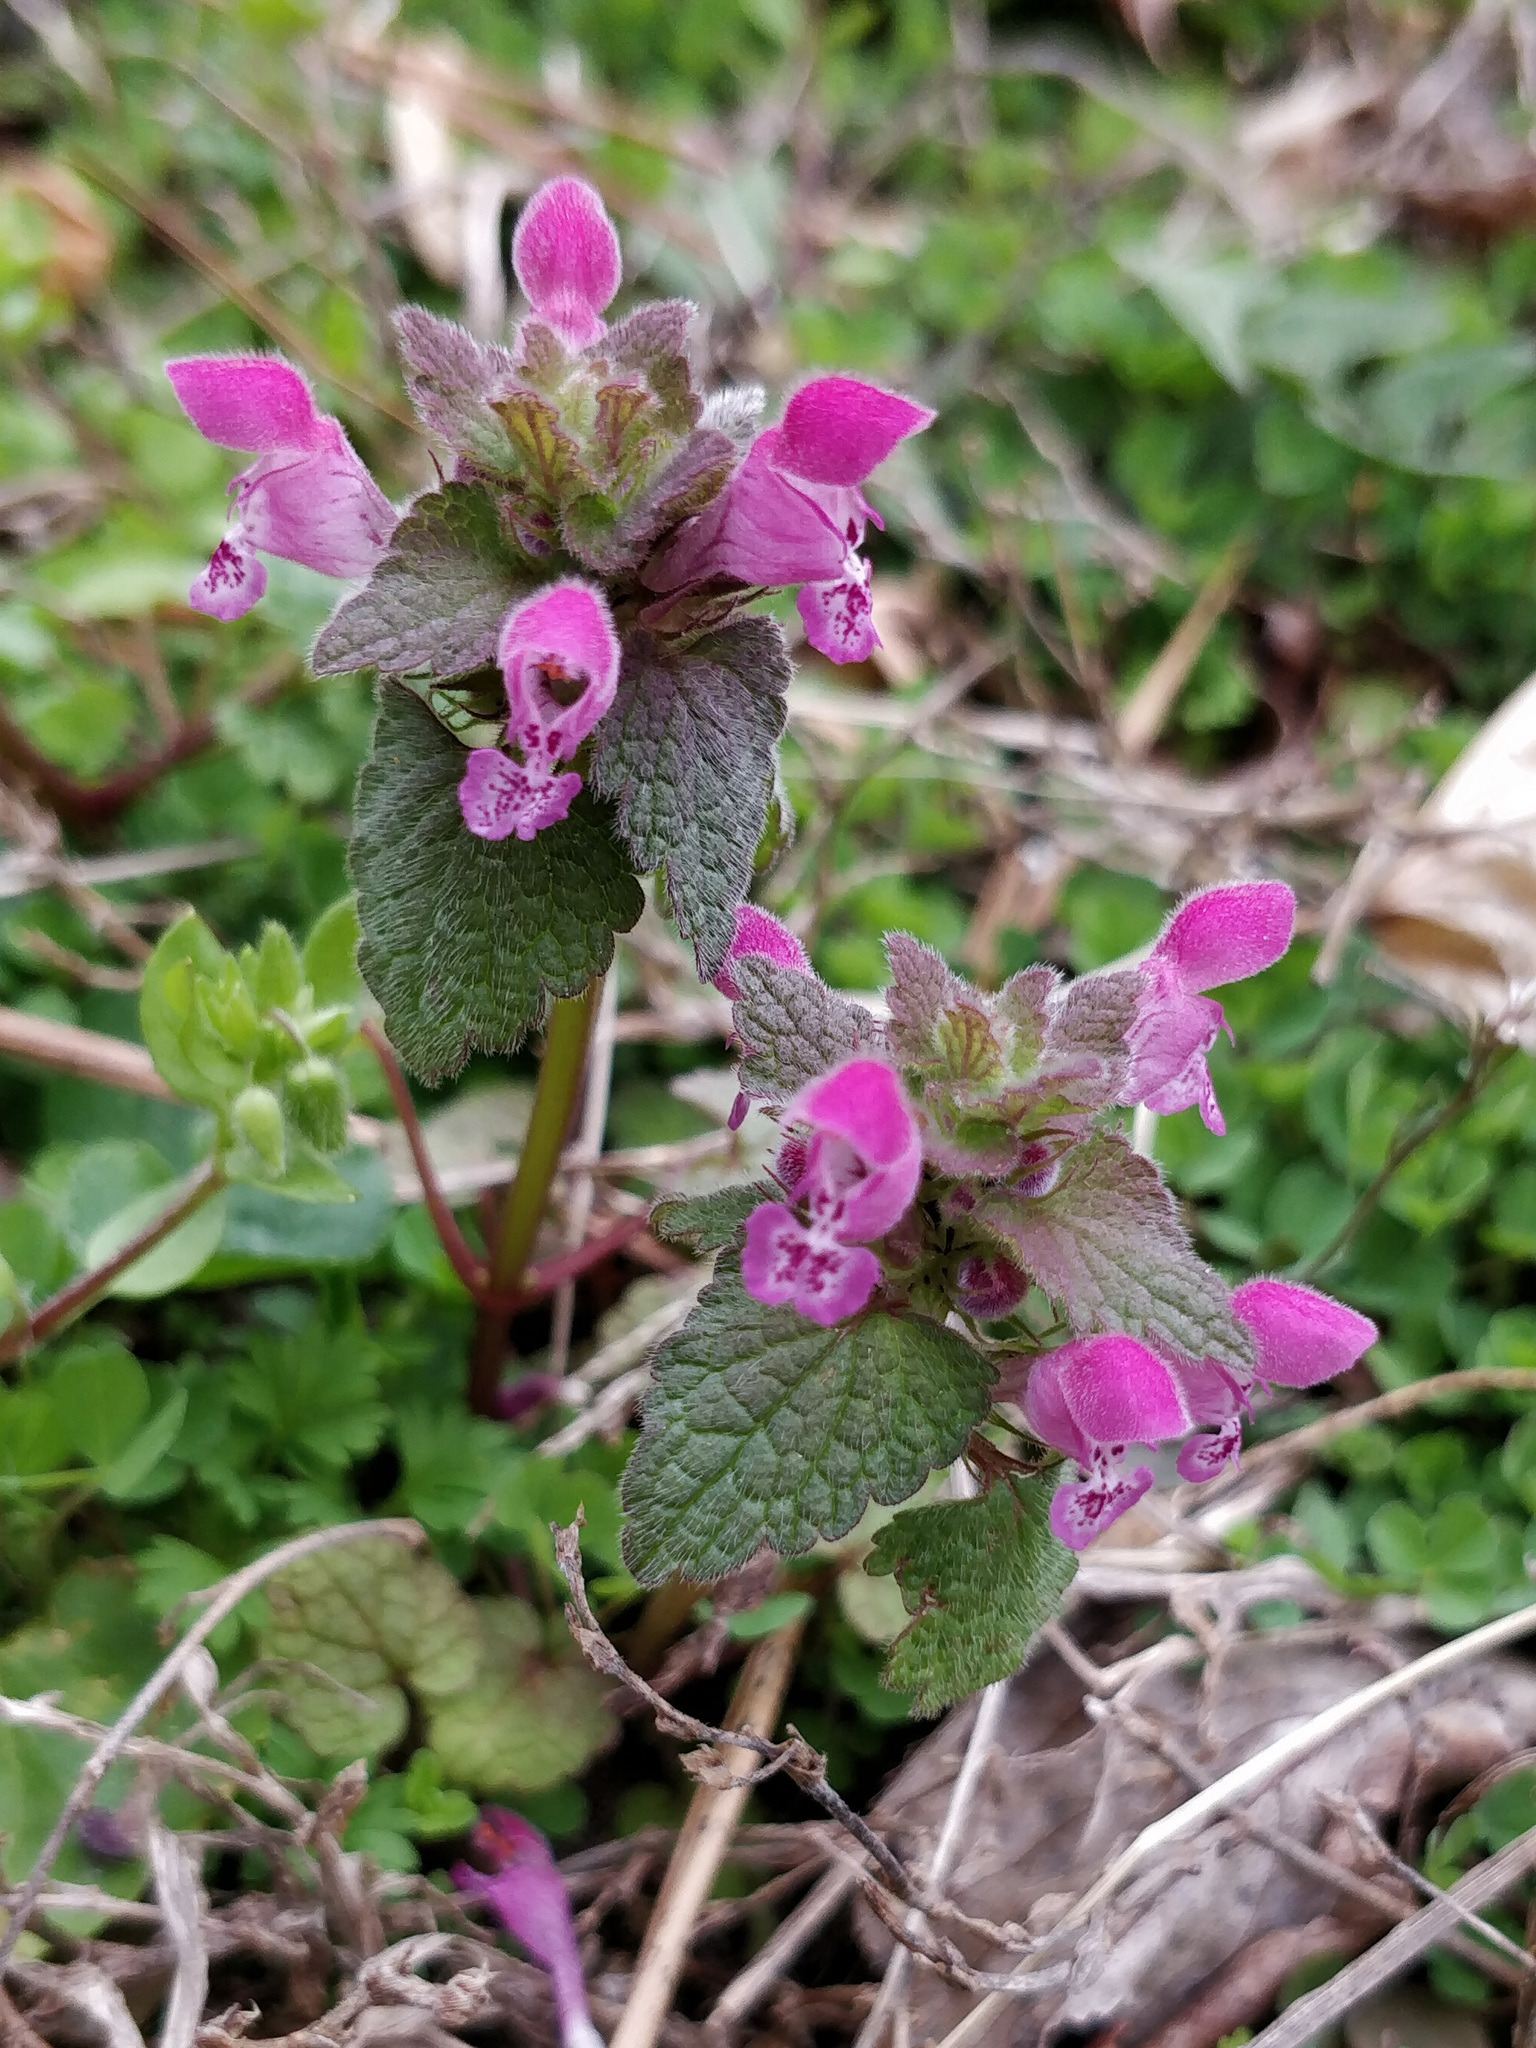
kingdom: Plantae
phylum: Tracheophyta
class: Magnoliopsida
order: Lamiales
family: Lamiaceae
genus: Lamium
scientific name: Lamium purpureum
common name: Red dead-nettle
